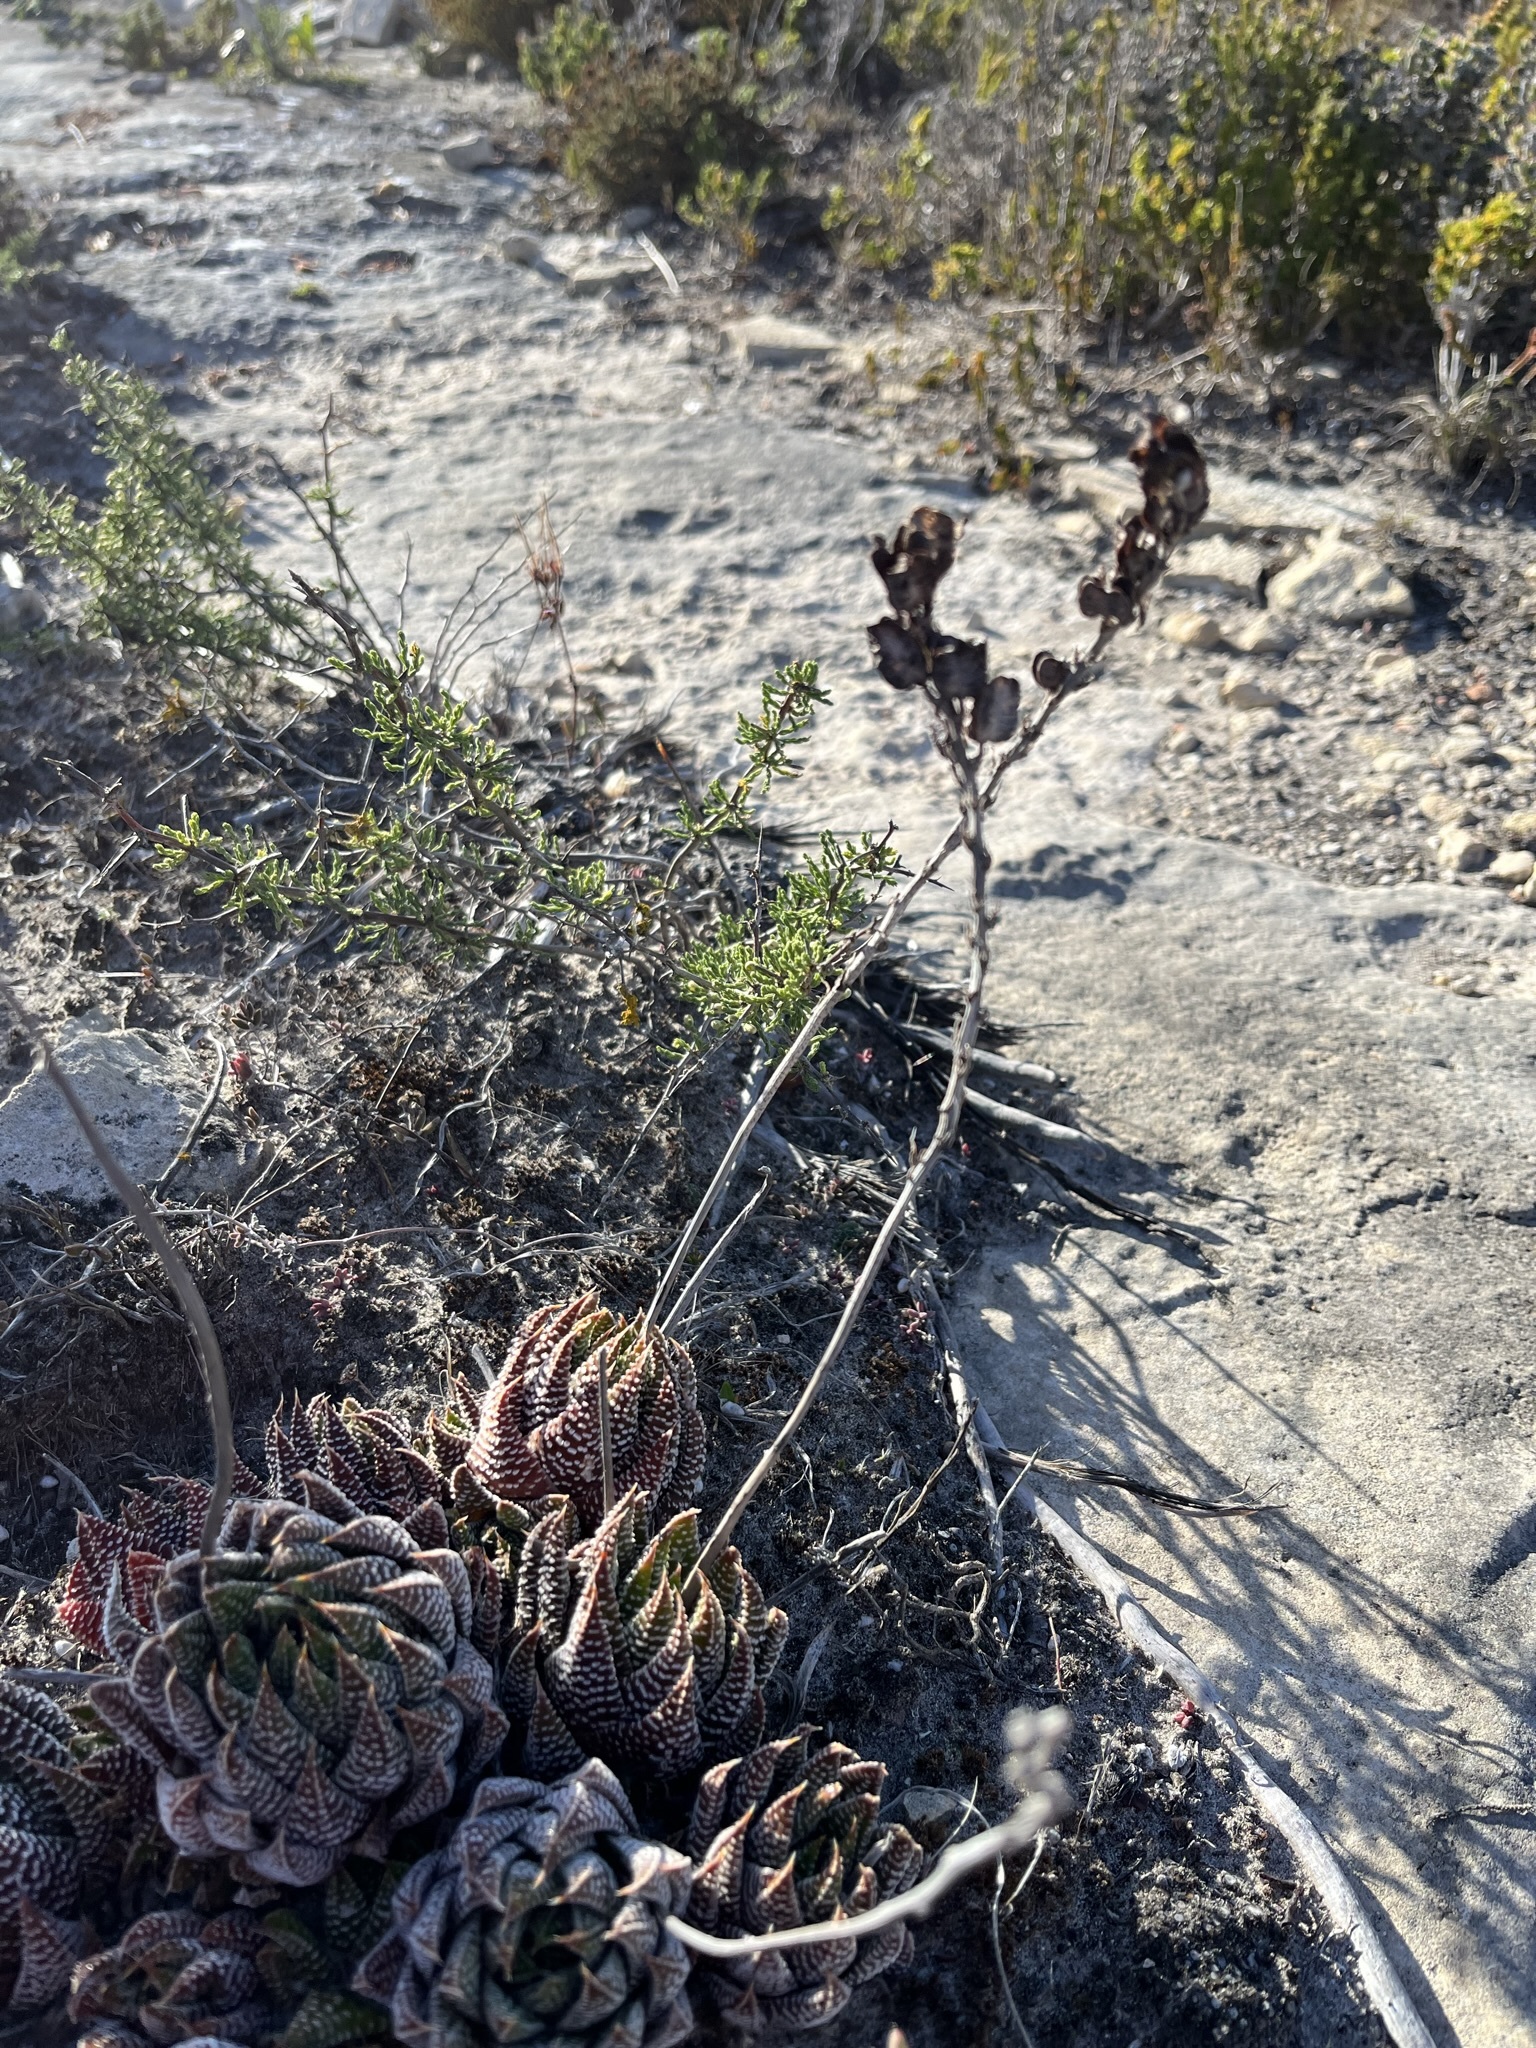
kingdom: Plantae
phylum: Tracheophyta
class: Liliopsida
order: Asparagales
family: Asphodelaceae
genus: Tulista
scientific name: Tulista minor
